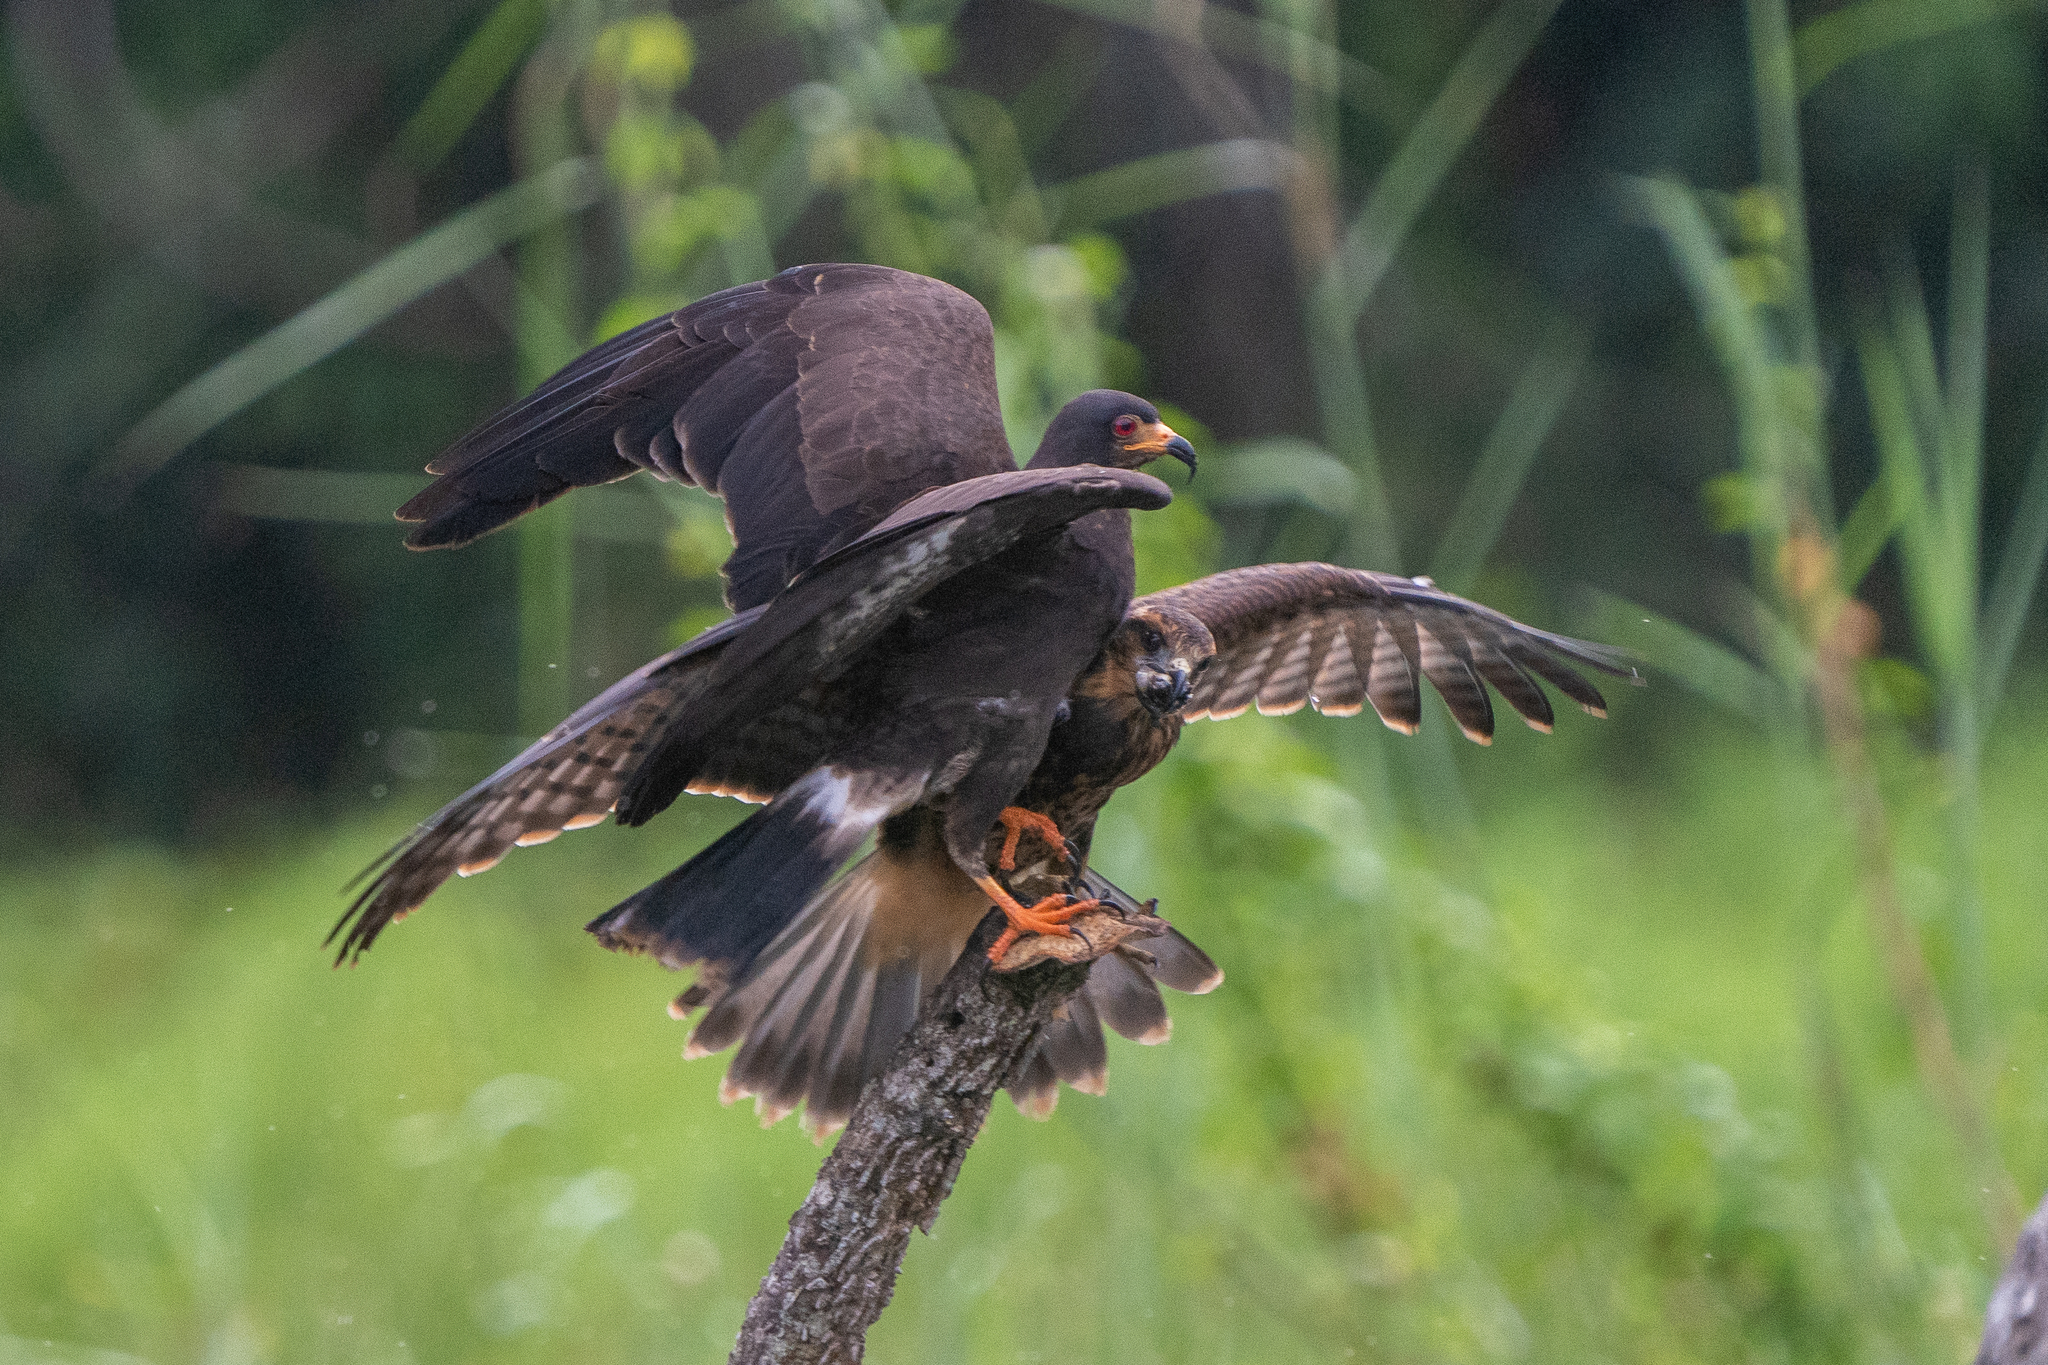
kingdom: Animalia
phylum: Chordata
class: Aves
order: Accipitriformes
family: Accipitridae
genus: Rostrhamus
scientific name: Rostrhamus sociabilis
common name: Snail kite
